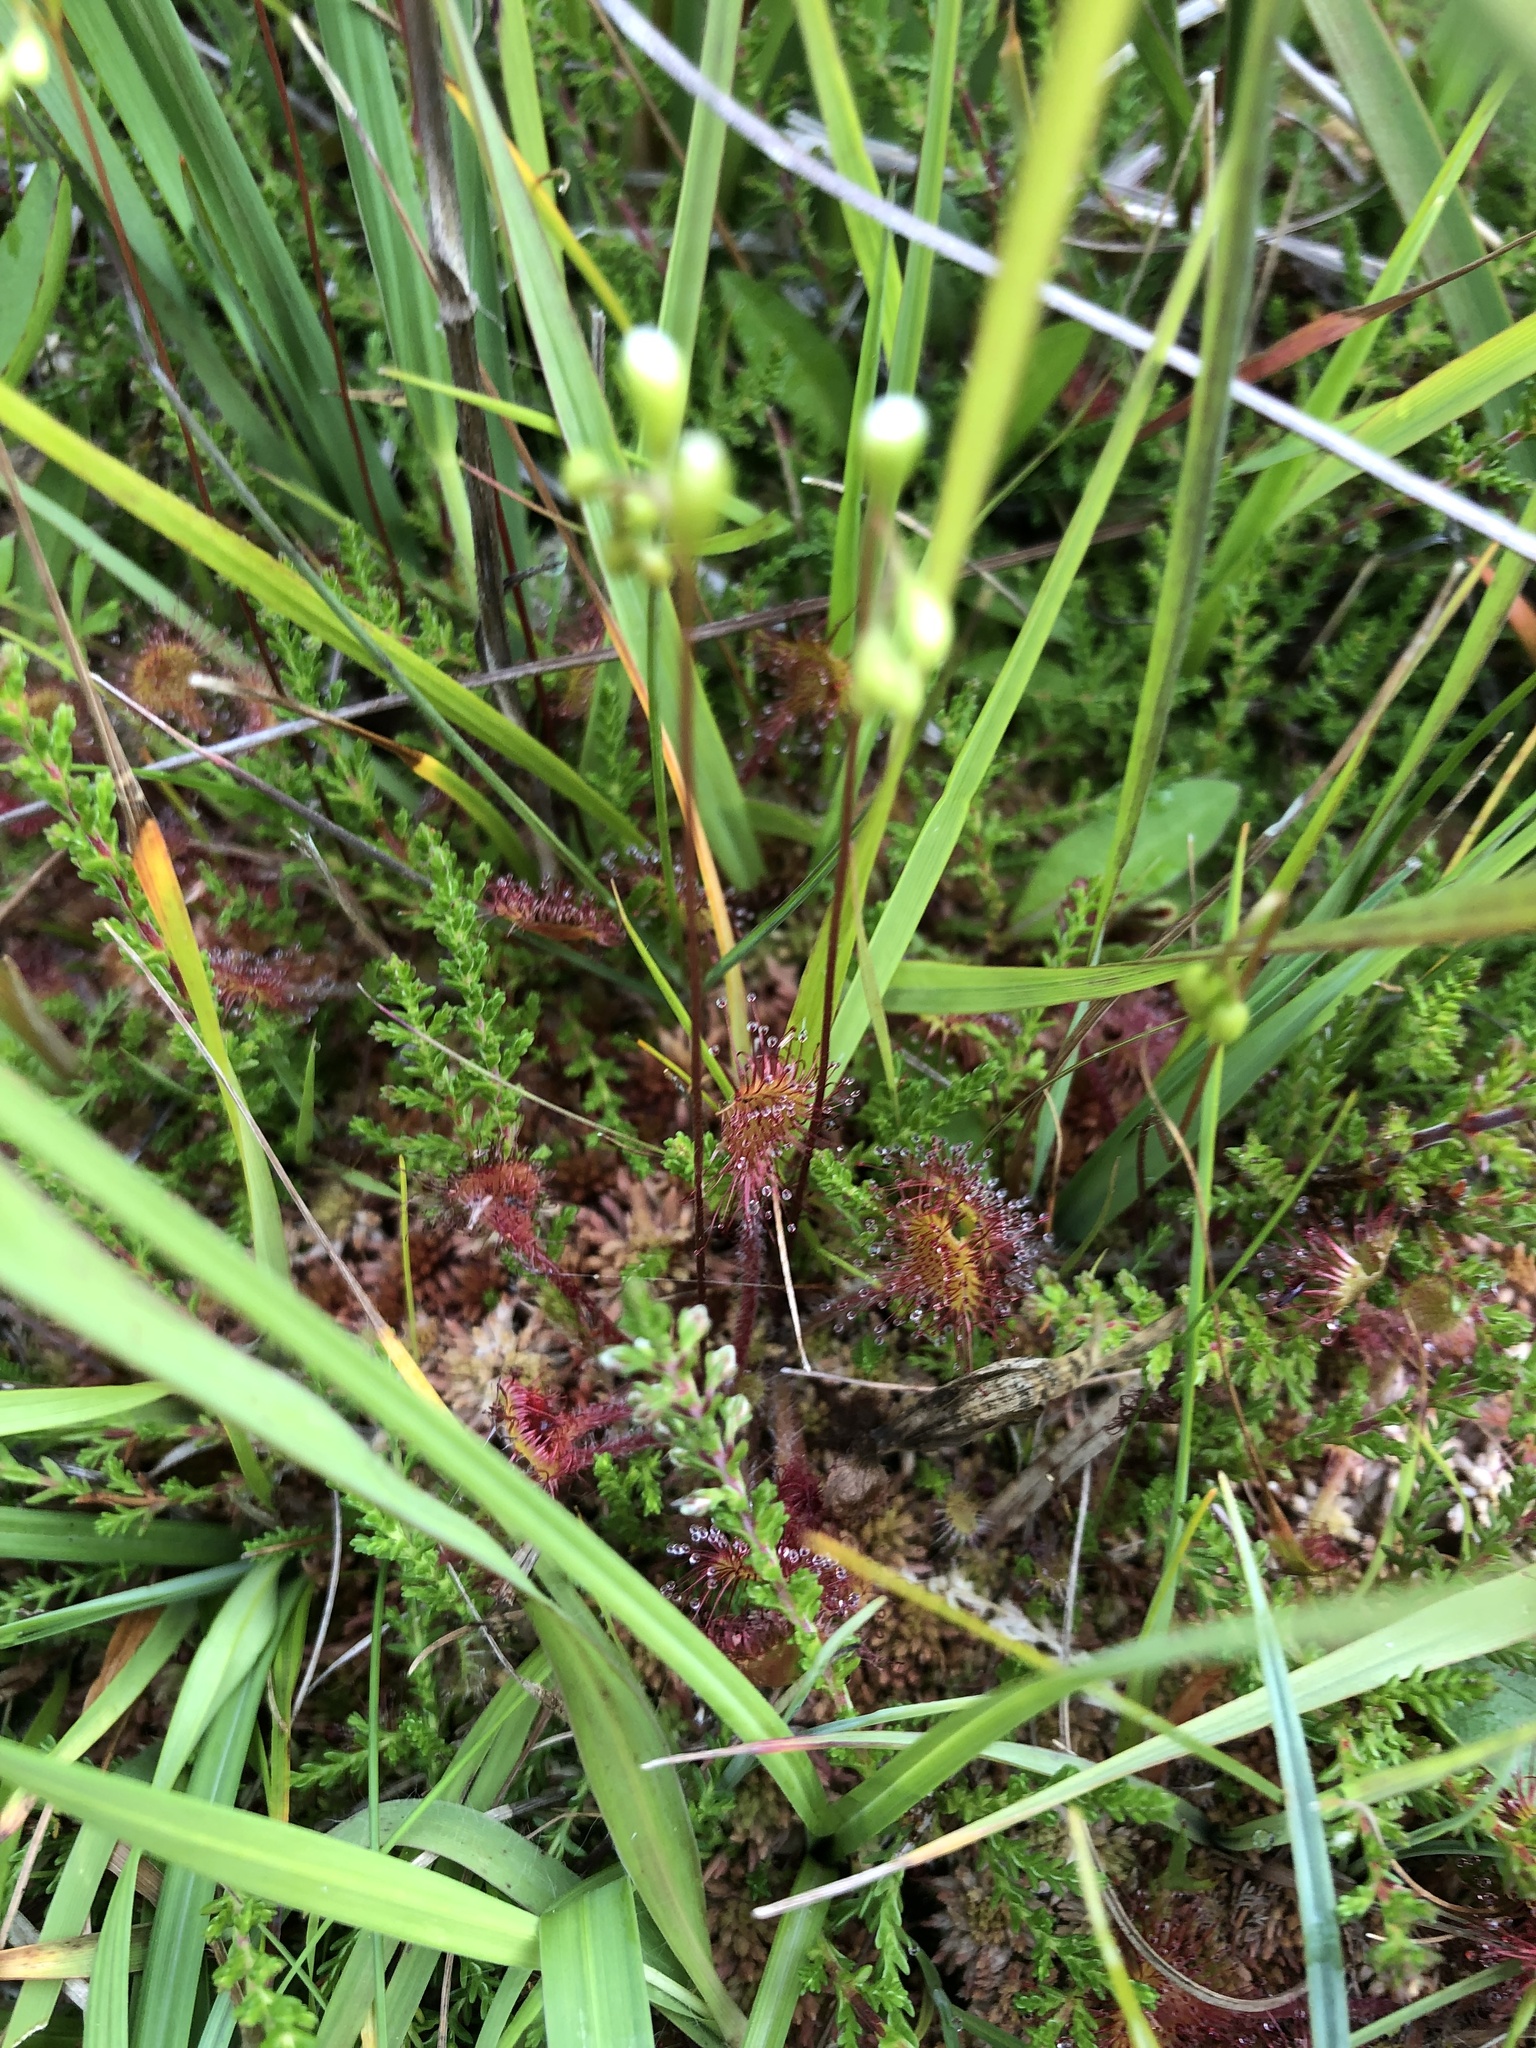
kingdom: Plantae
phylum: Tracheophyta
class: Magnoliopsida
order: Caryophyllales
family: Droseraceae
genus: Drosera
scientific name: Drosera rotundifolia
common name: Round-leaved sundew
